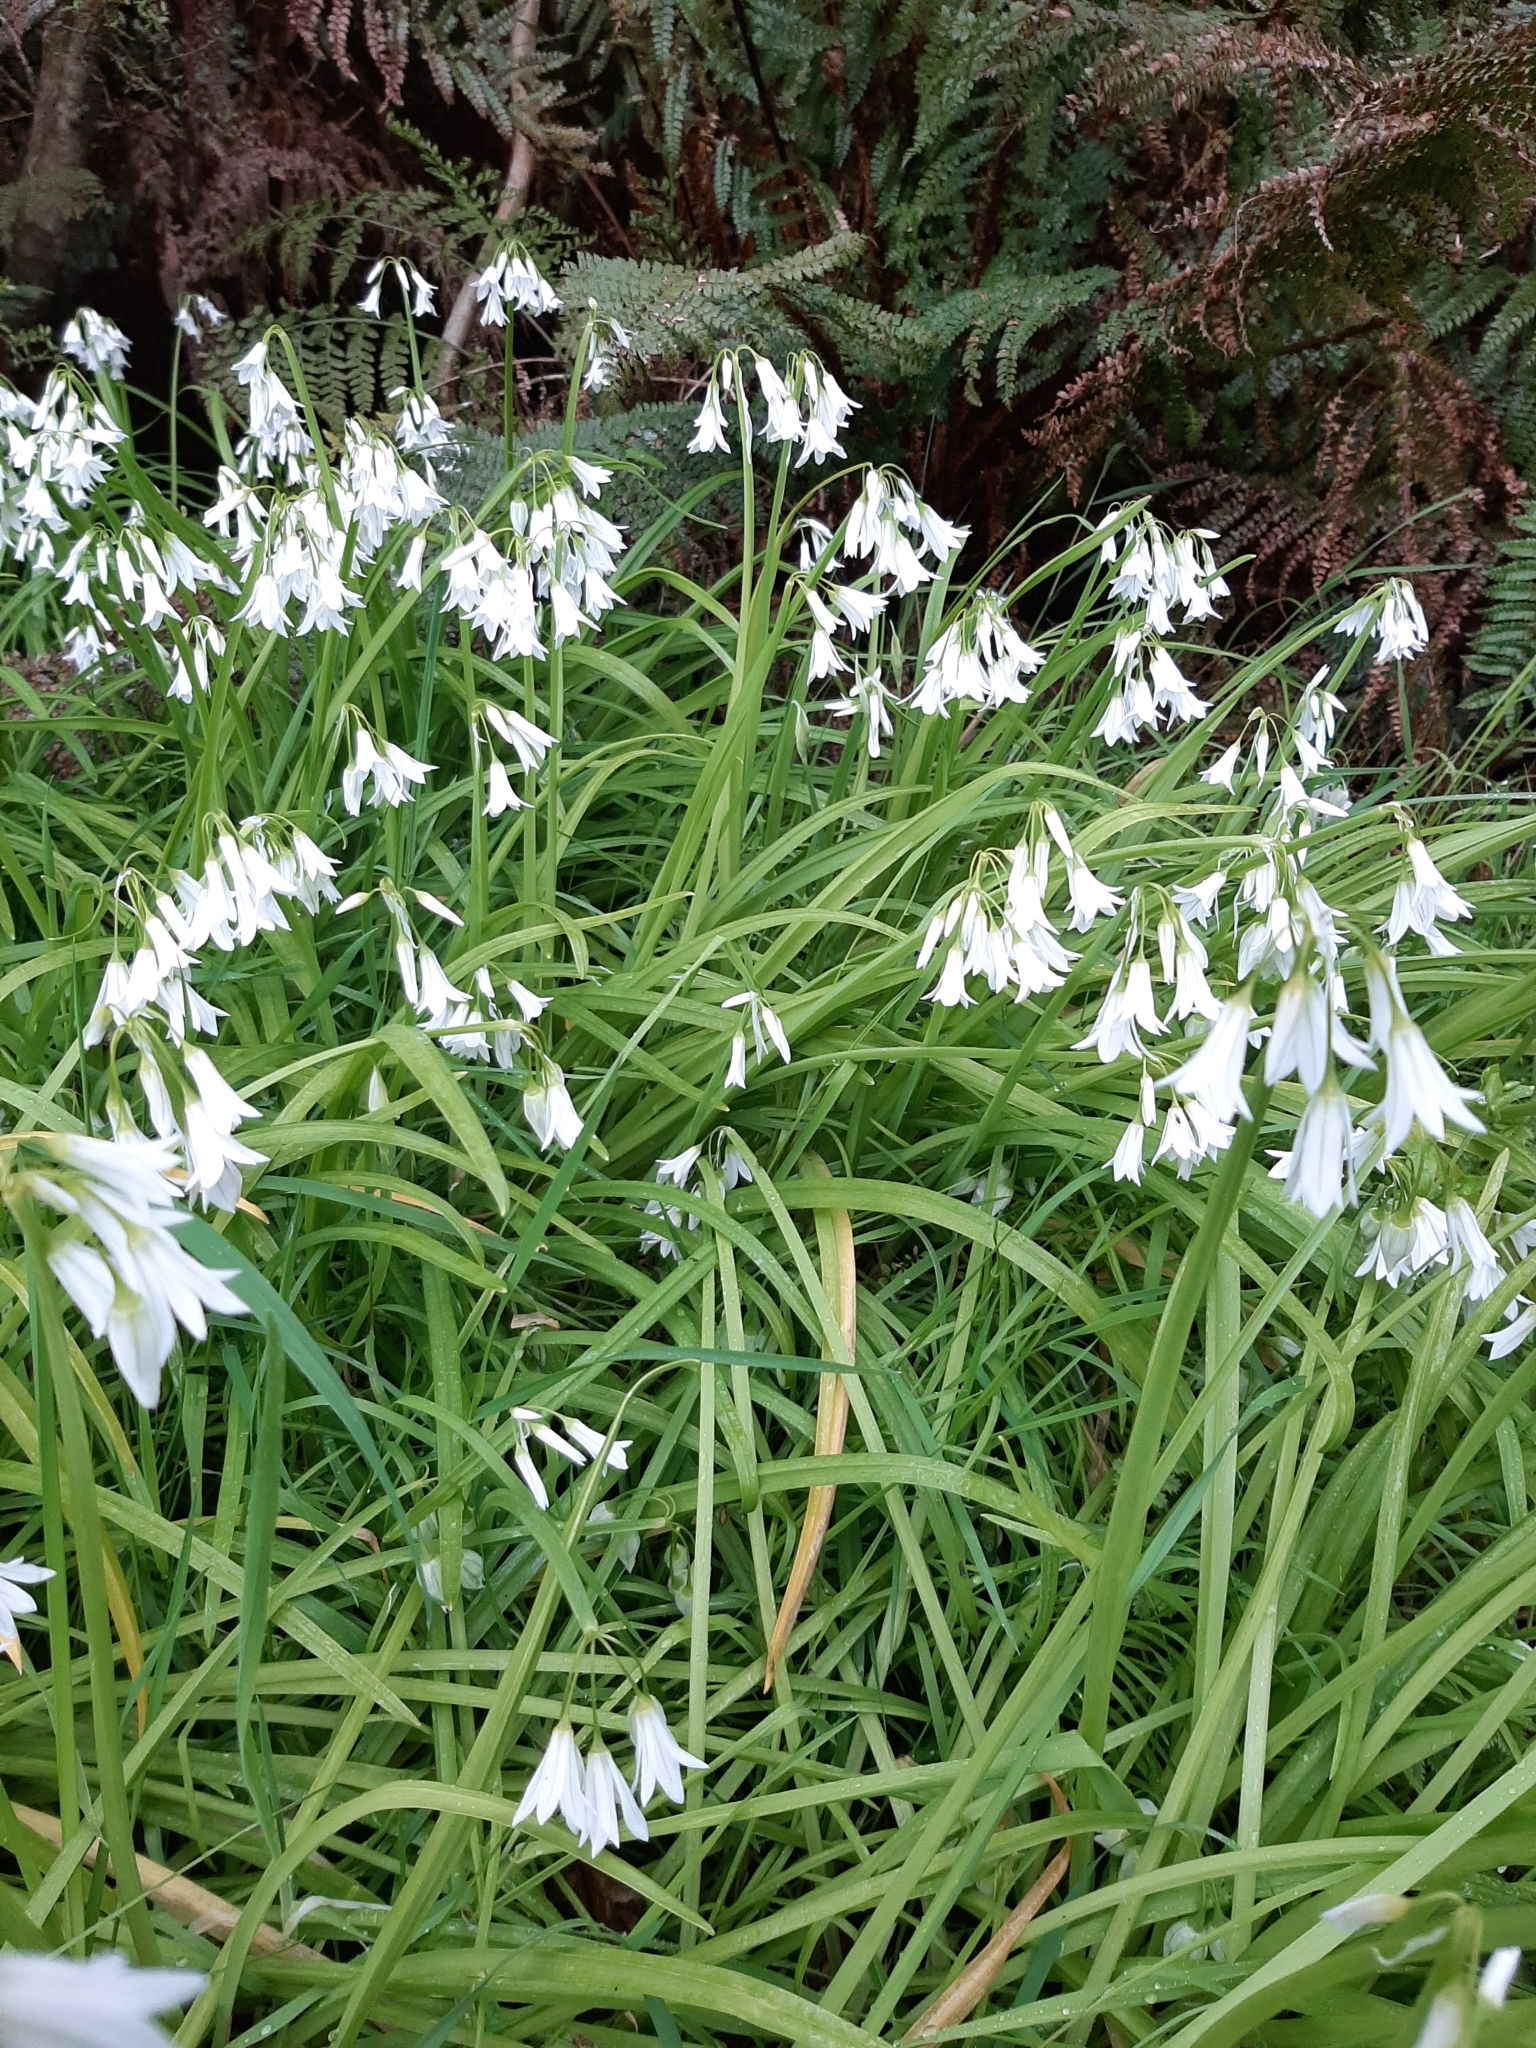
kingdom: Plantae
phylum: Tracheophyta
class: Liliopsida
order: Asparagales
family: Amaryllidaceae
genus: Allium
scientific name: Allium triquetrum
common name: Three-cornered garlic
